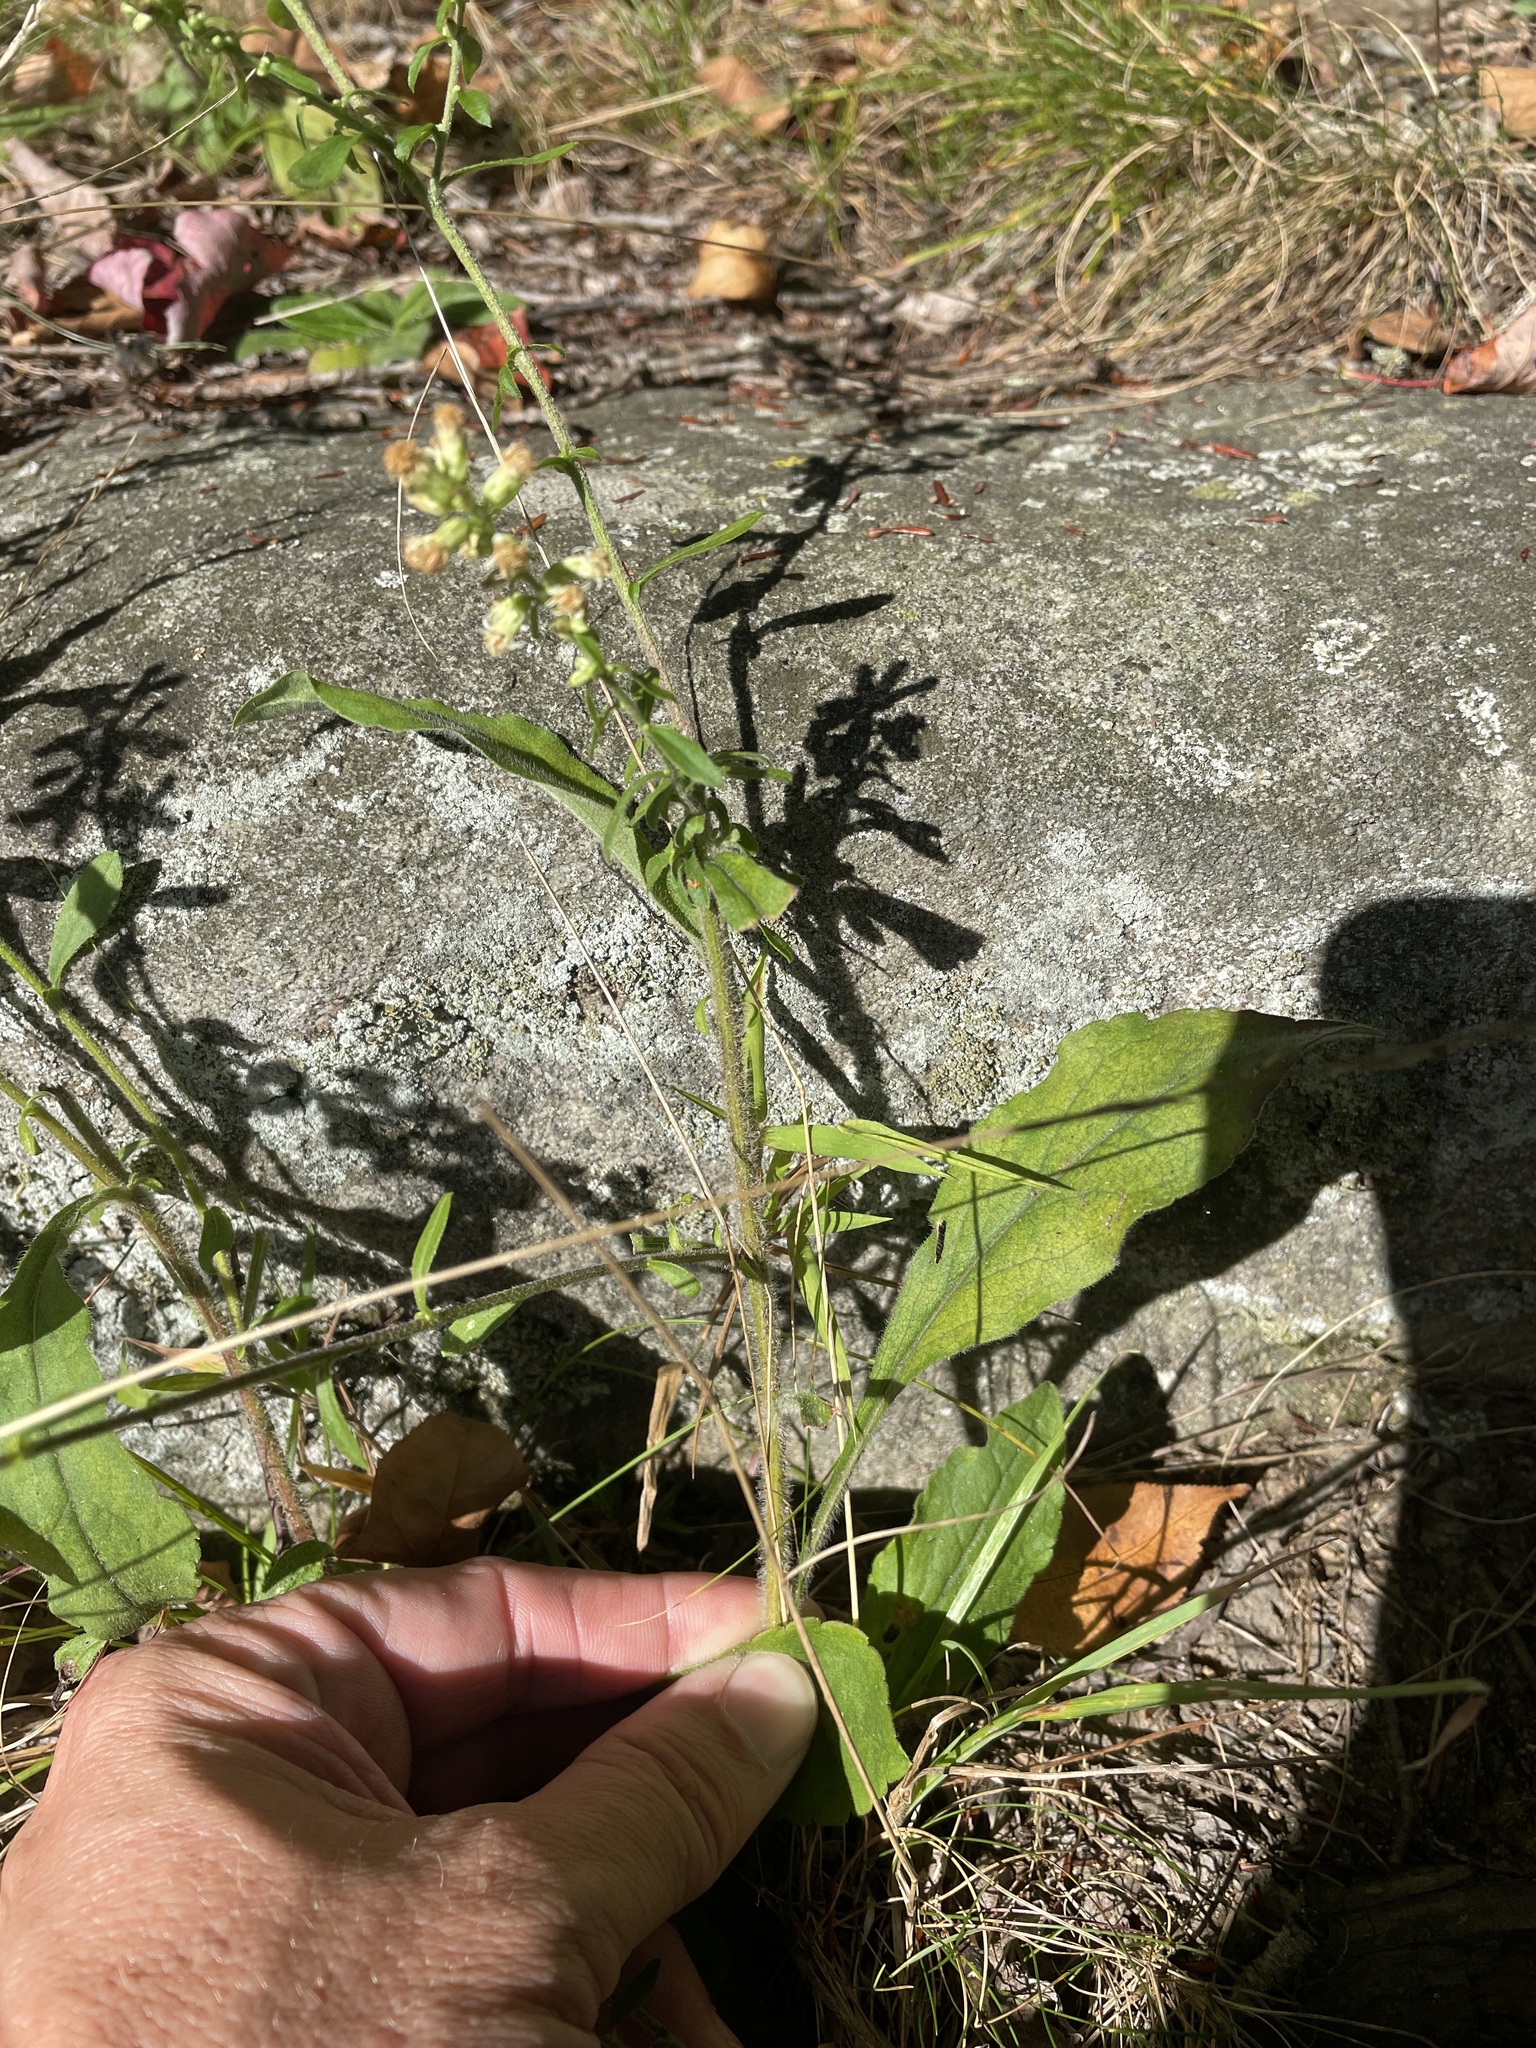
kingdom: Plantae
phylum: Tracheophyta
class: Magnoliopsida
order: Asterales
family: Asteraceae
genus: Solidago
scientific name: Solidago bicolor
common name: Silverrod
